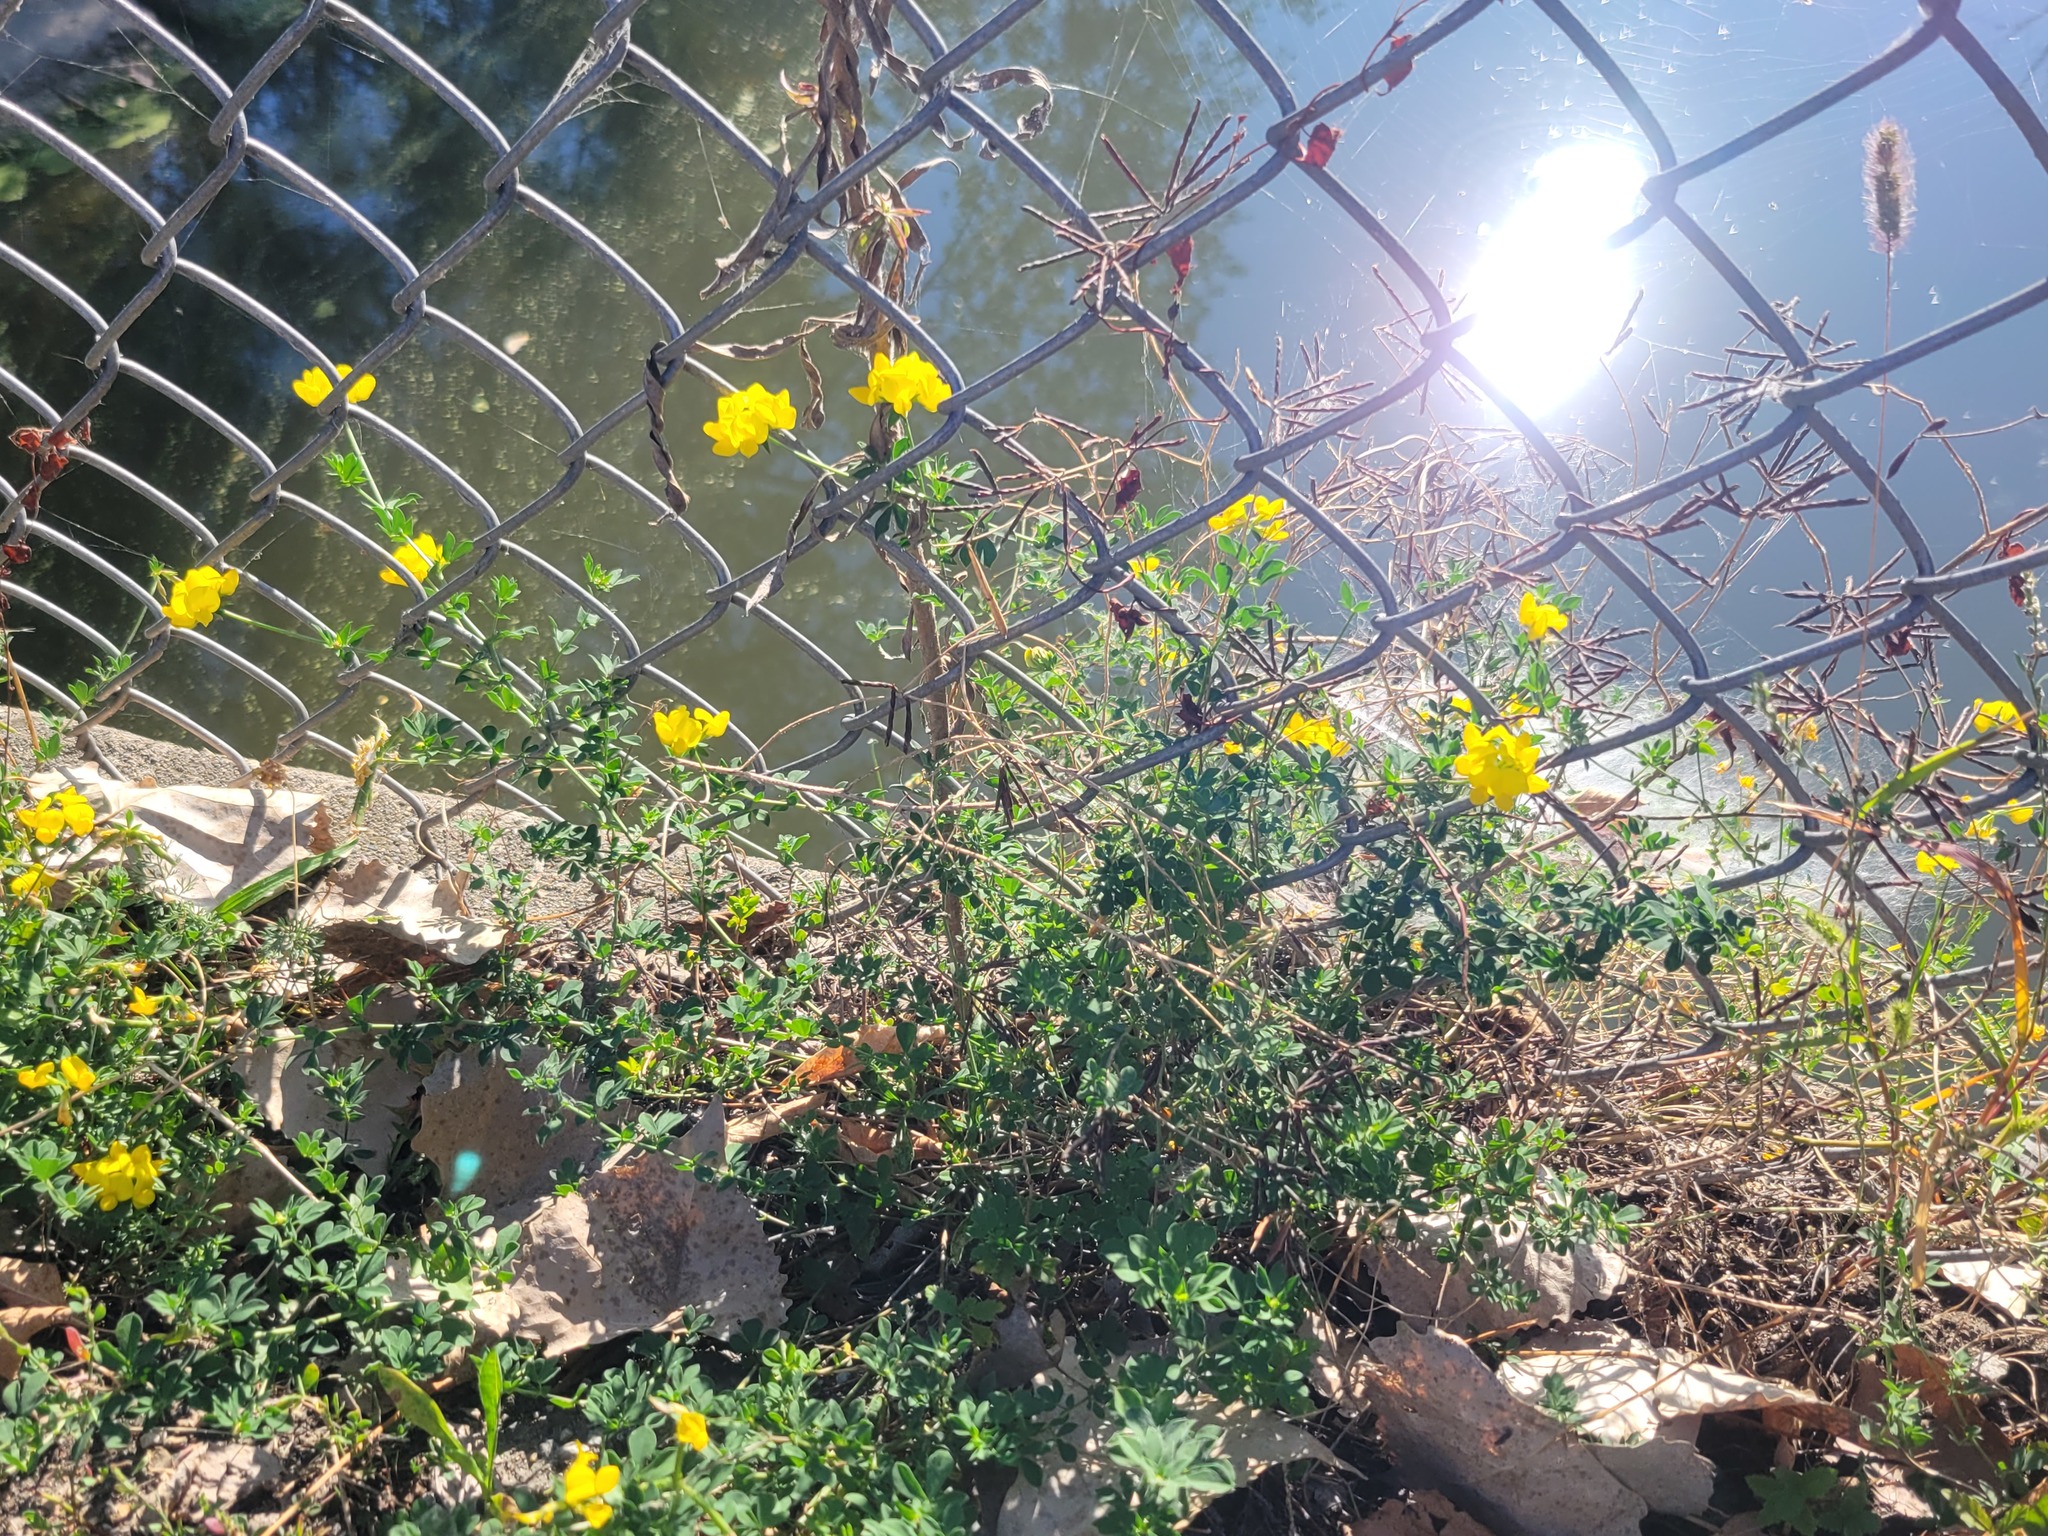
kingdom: Plantae
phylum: Tracheophyta
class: Magnoliopsida
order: Fabales
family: Fabaceae
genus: Lotus
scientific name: Lotus corniculatus
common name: Common bird's-foot-trefoil
